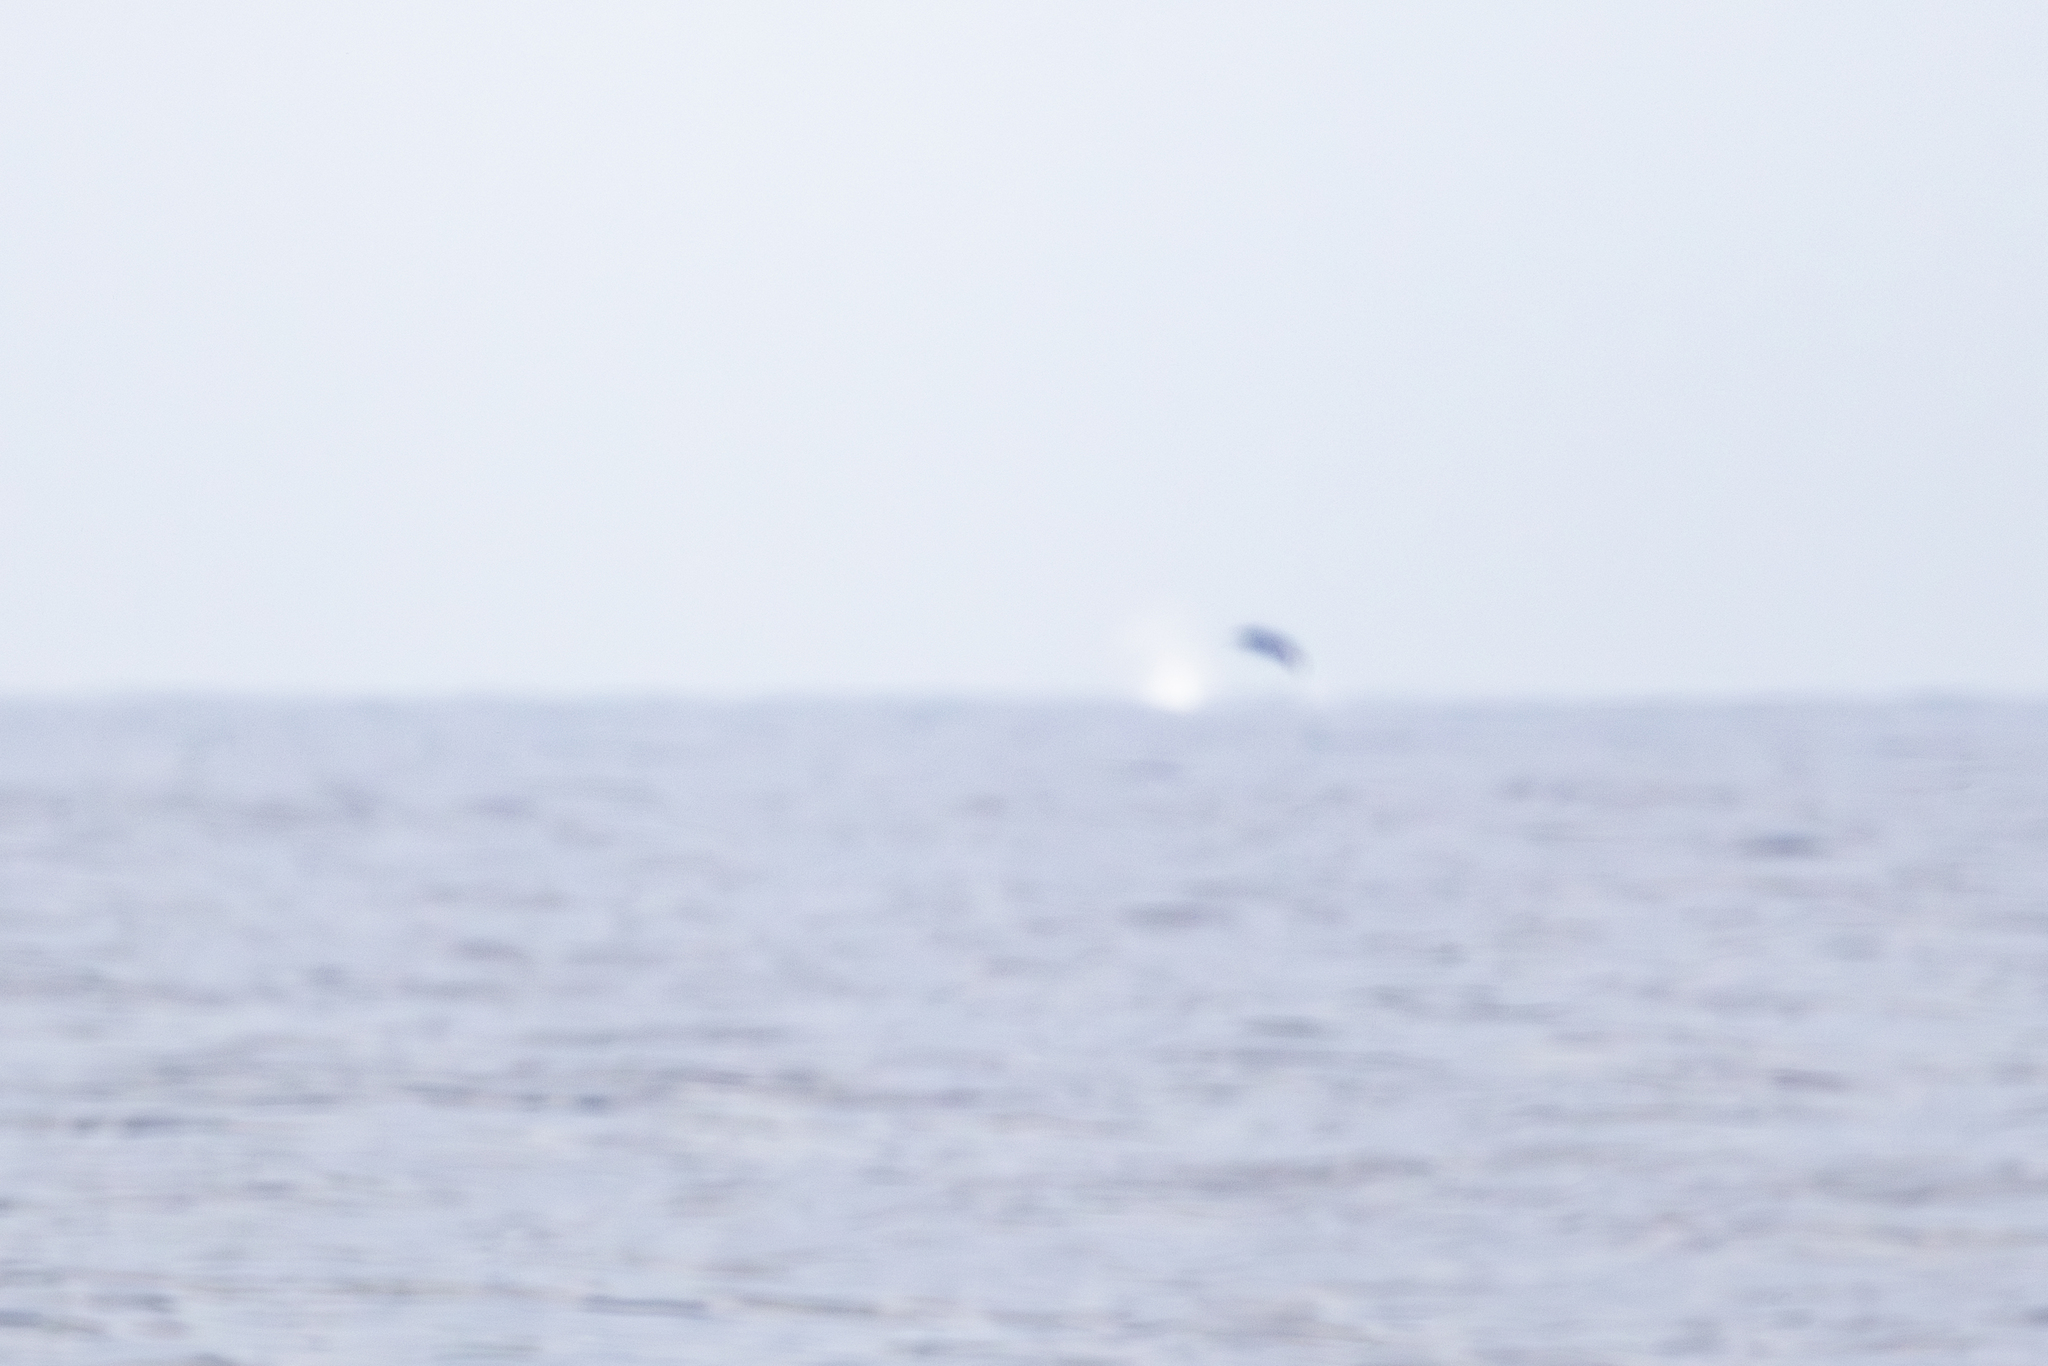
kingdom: Animalia
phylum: Chordata
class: Mammalia
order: Cetacea
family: Hyperoodontidae
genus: Mesoplodon
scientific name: Mesoplodon bidens
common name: Sowerby's beaked whale
